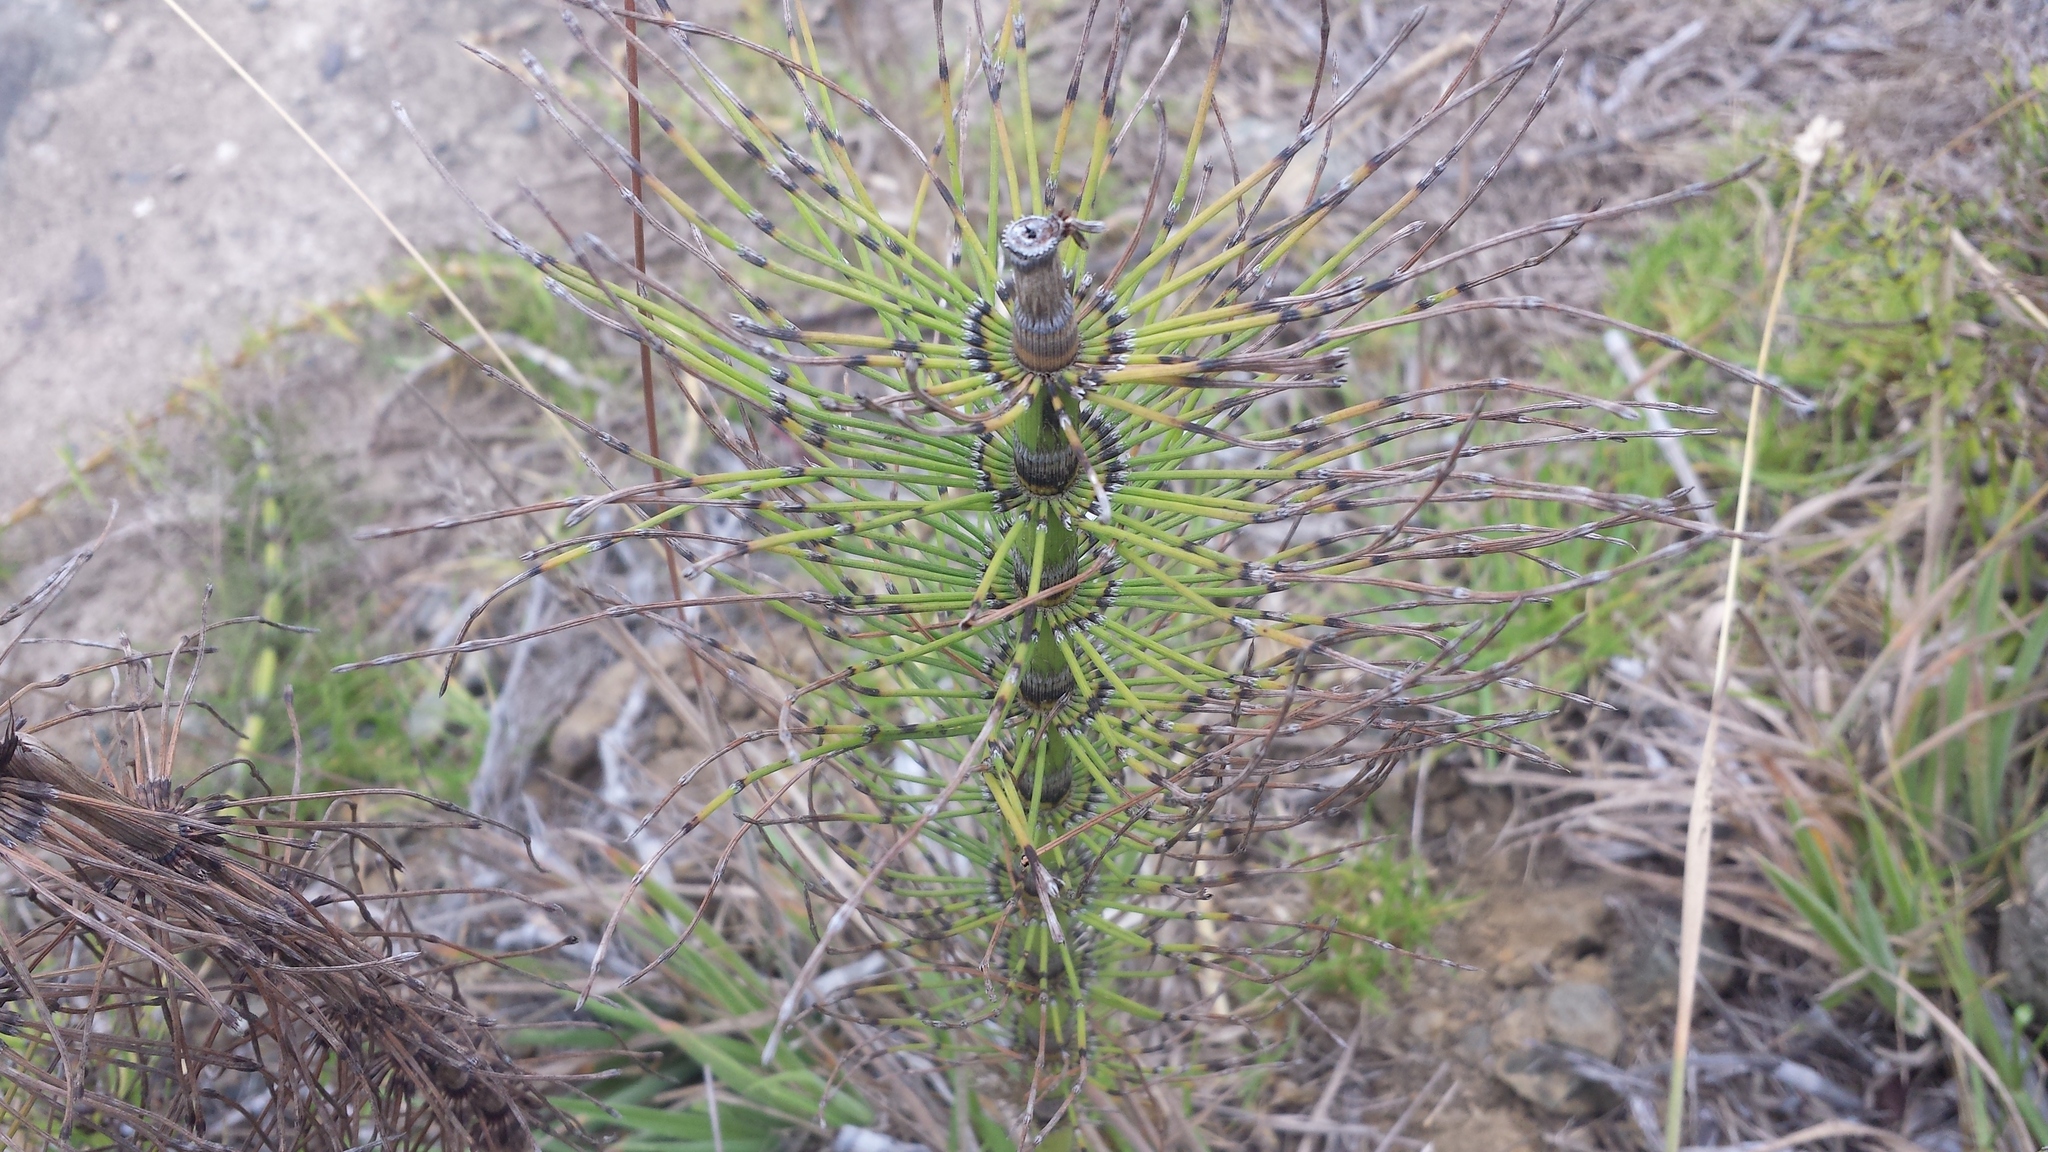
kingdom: Plantae
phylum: Tracheophyta
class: Polypodiopsida
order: Equisetales
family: Equisetaceae
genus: Equisetum
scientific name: Equisetum telmateia
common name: Great horsetail
